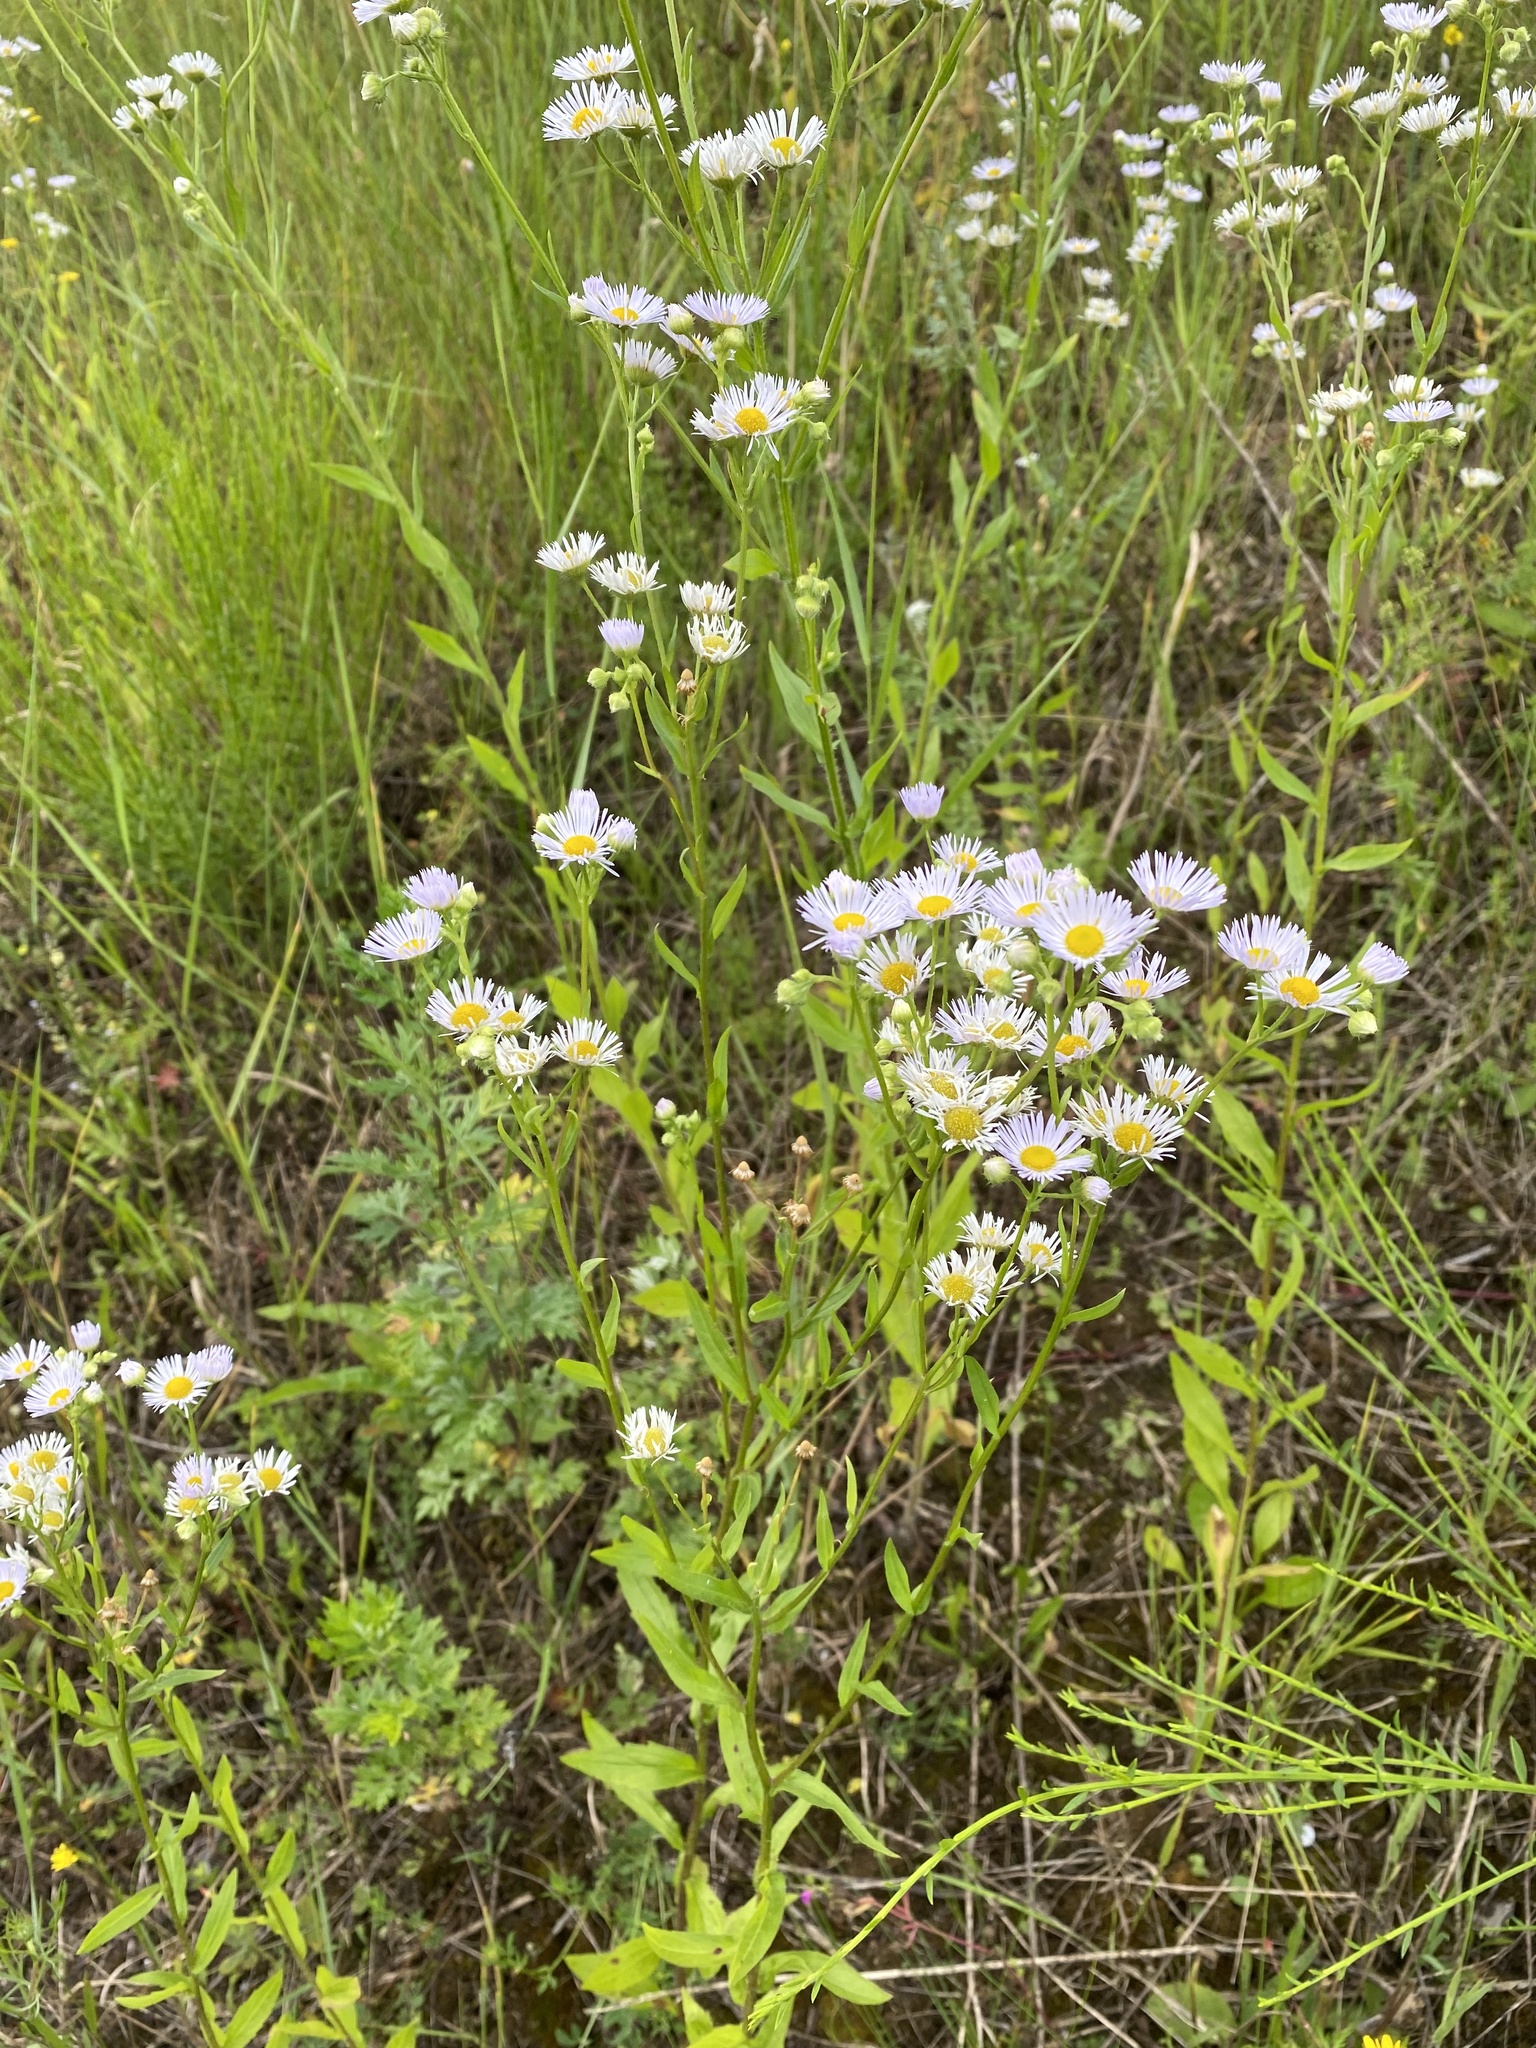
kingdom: Plantae
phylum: Tracheophyta
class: Magnoliopsida
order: Asterales
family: Asteraceae
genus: Erigeron
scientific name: Erigeron annuus
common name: Tall fleabane
